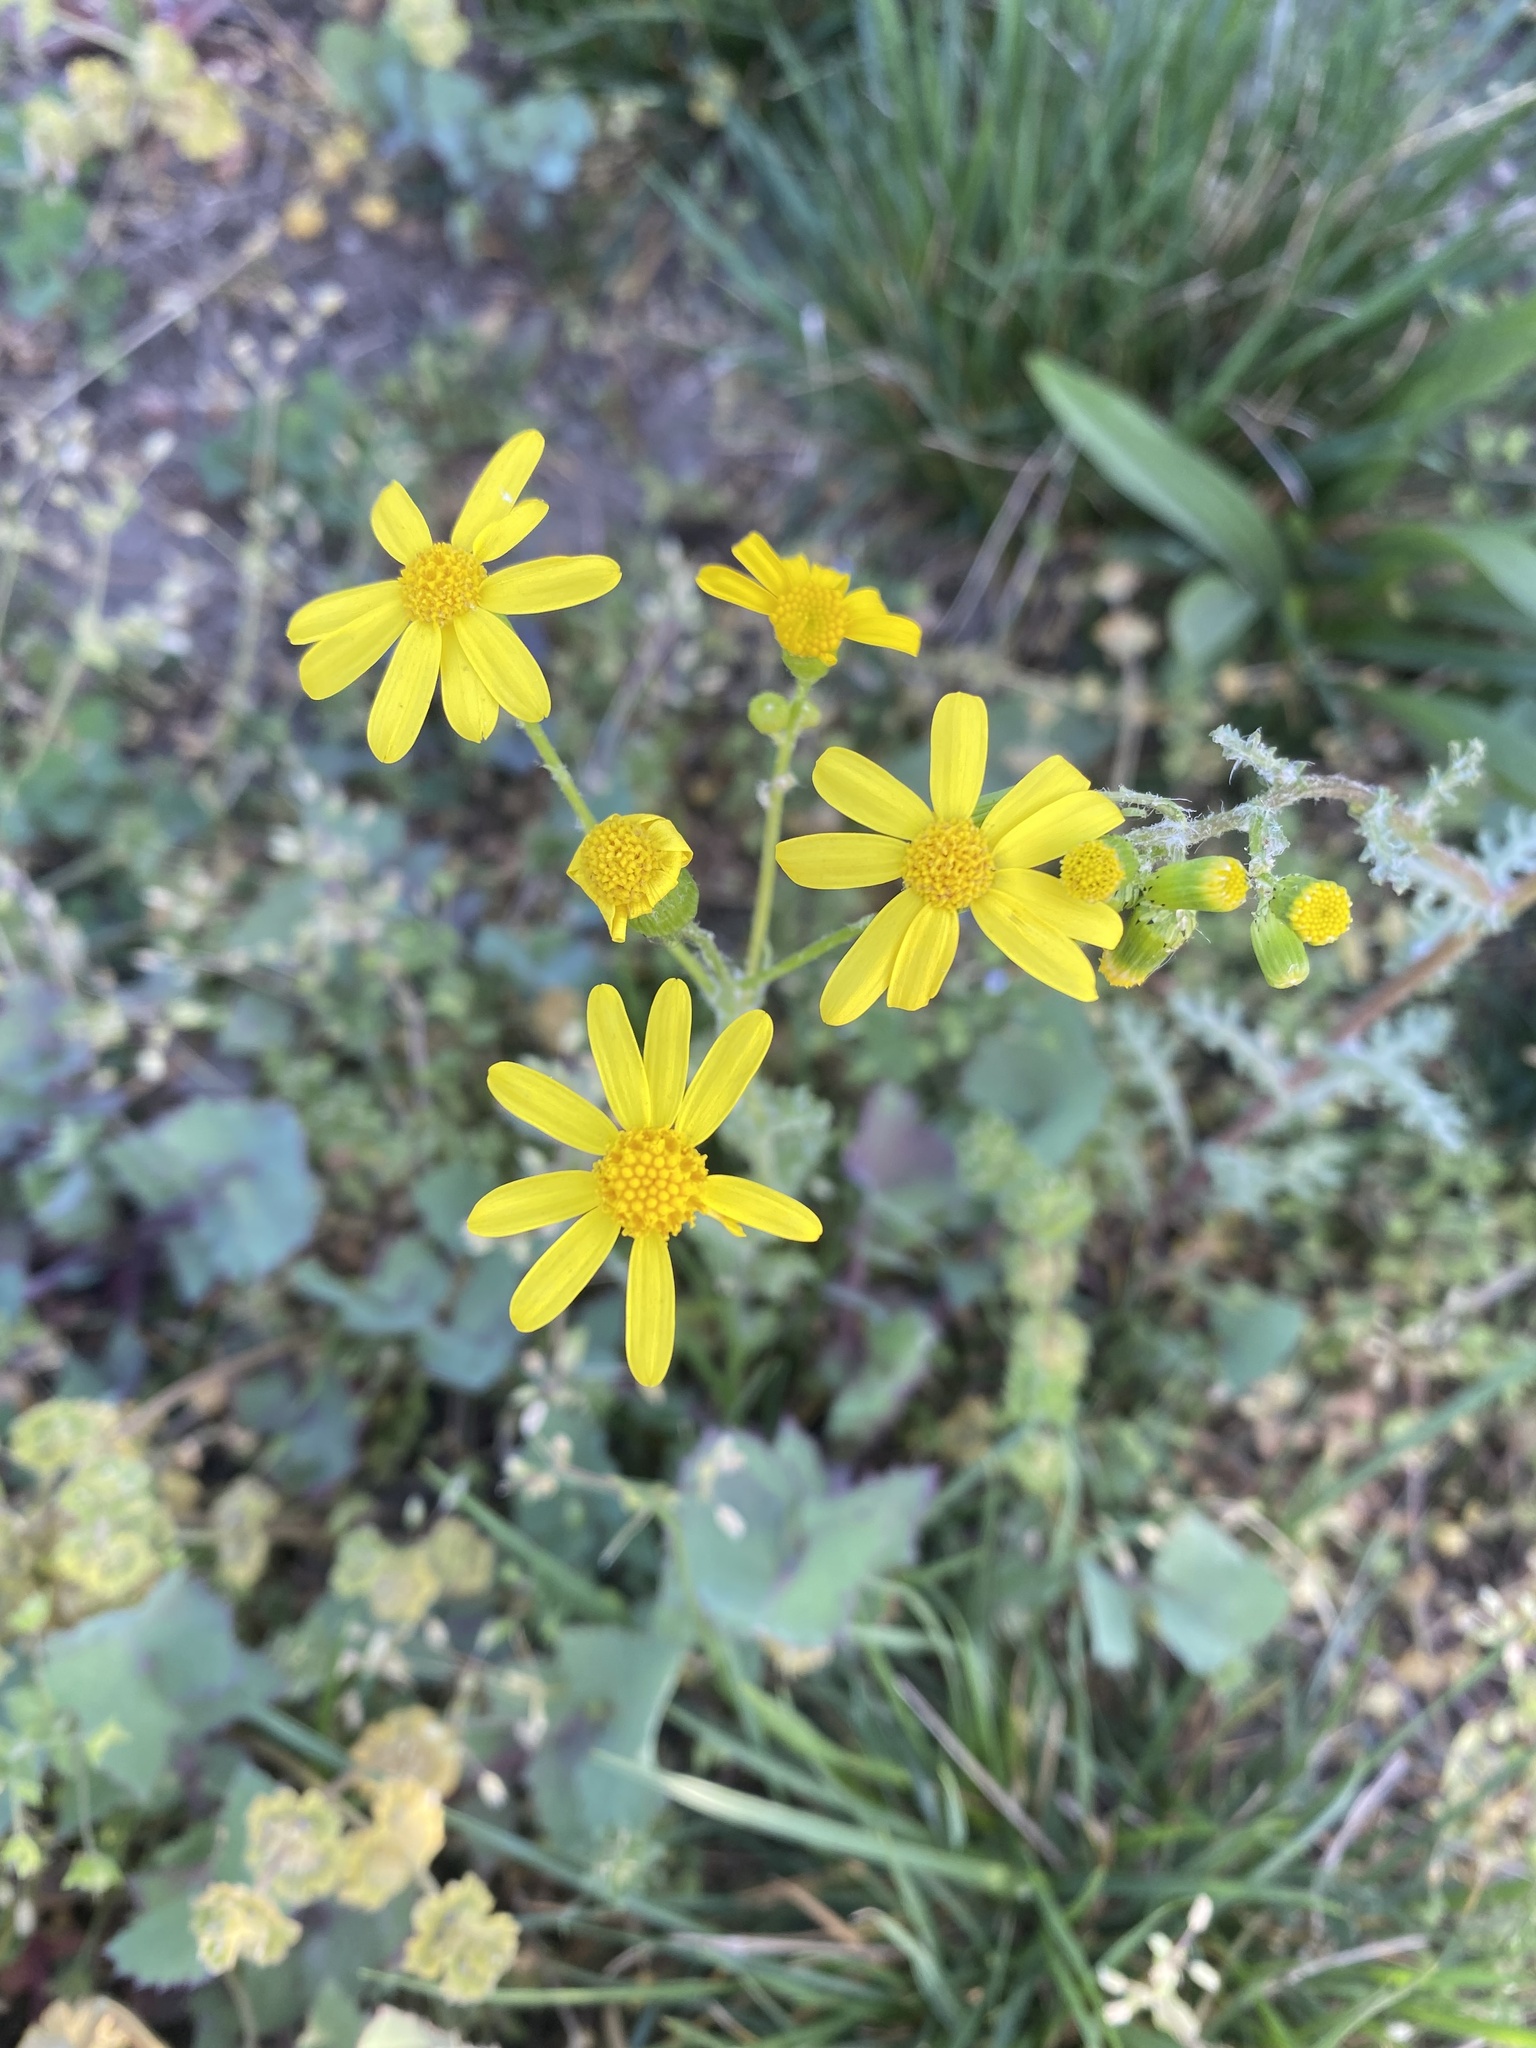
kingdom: Plantae
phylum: Tracheophyta
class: Magnoliopsida
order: Asterales
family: Asteraceae
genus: Senecio
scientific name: Senecio vernalis
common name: Eastern groundsel
